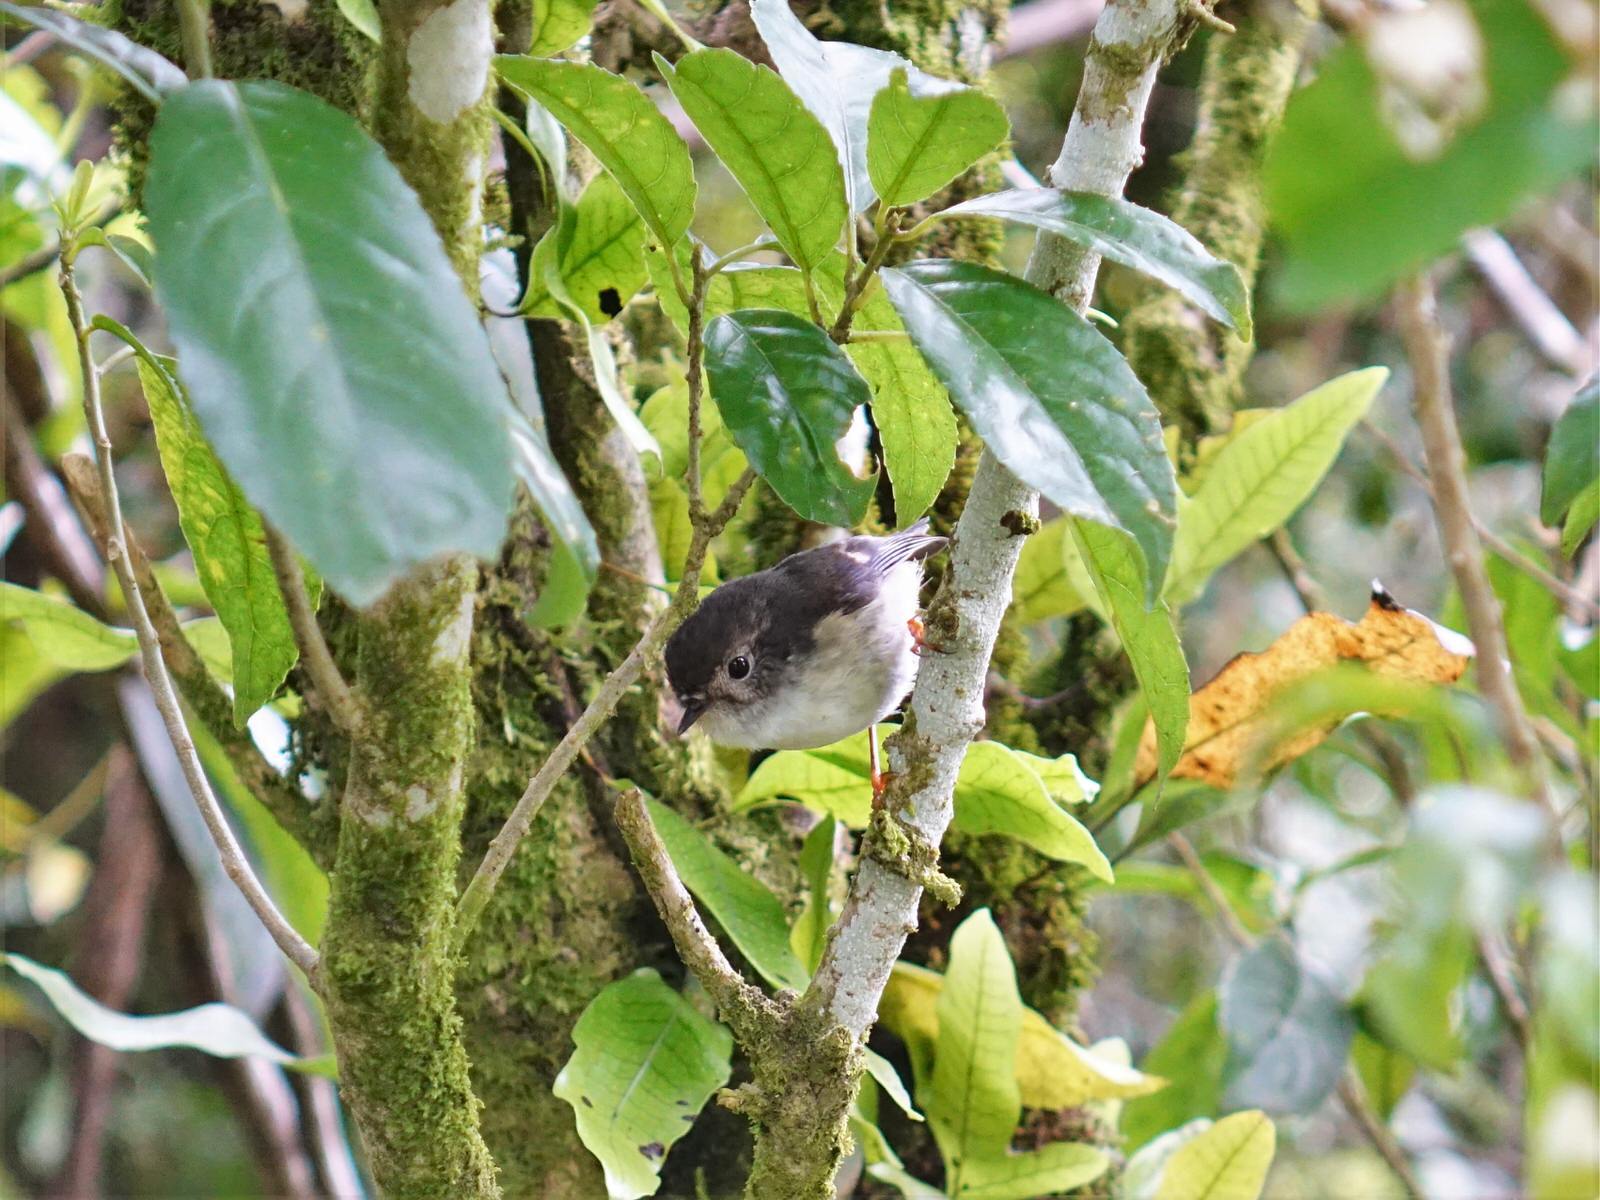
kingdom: Animalia
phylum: Chordata
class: Aves
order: Passeriformes
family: Petroicidae
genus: Petroica
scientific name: Petroica macrocephala
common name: Tomtit
